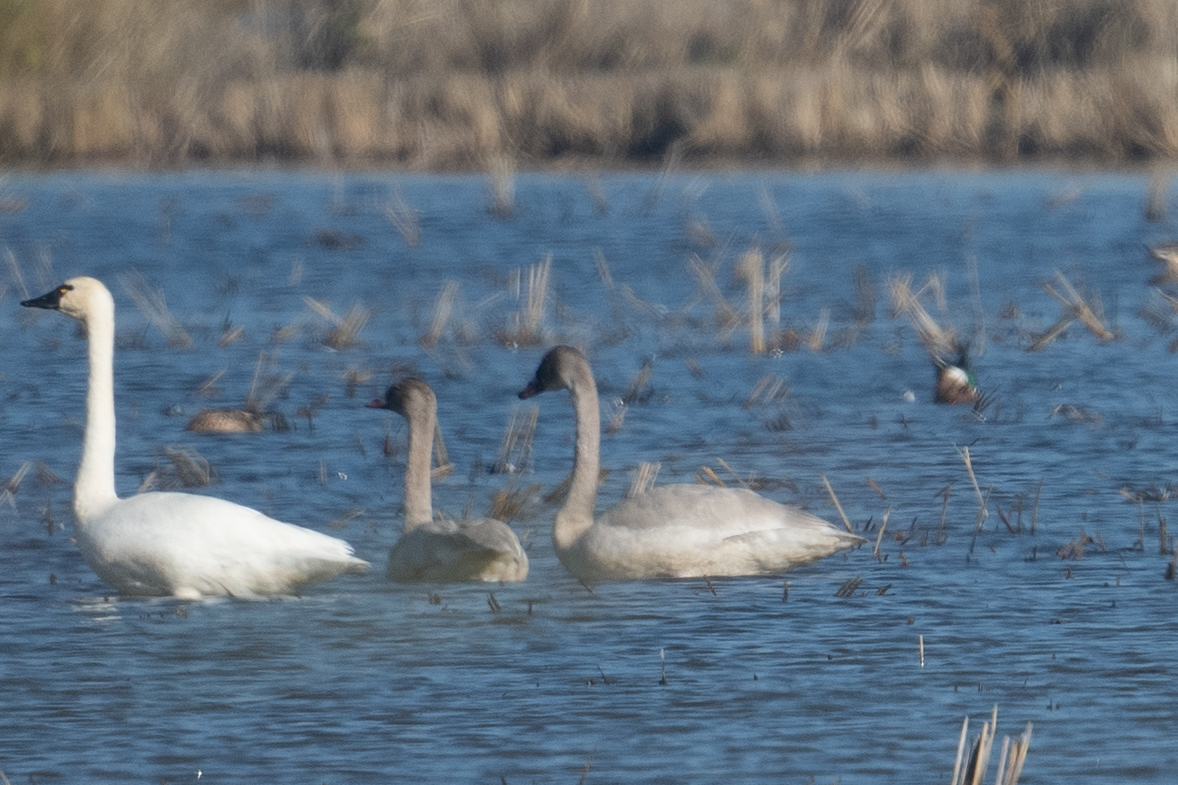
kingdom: Animalia
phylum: Chordata
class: Aves
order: Anseriformes
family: Anatidae
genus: Cygnus
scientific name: Cygnus columbianus
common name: Tundra swan
